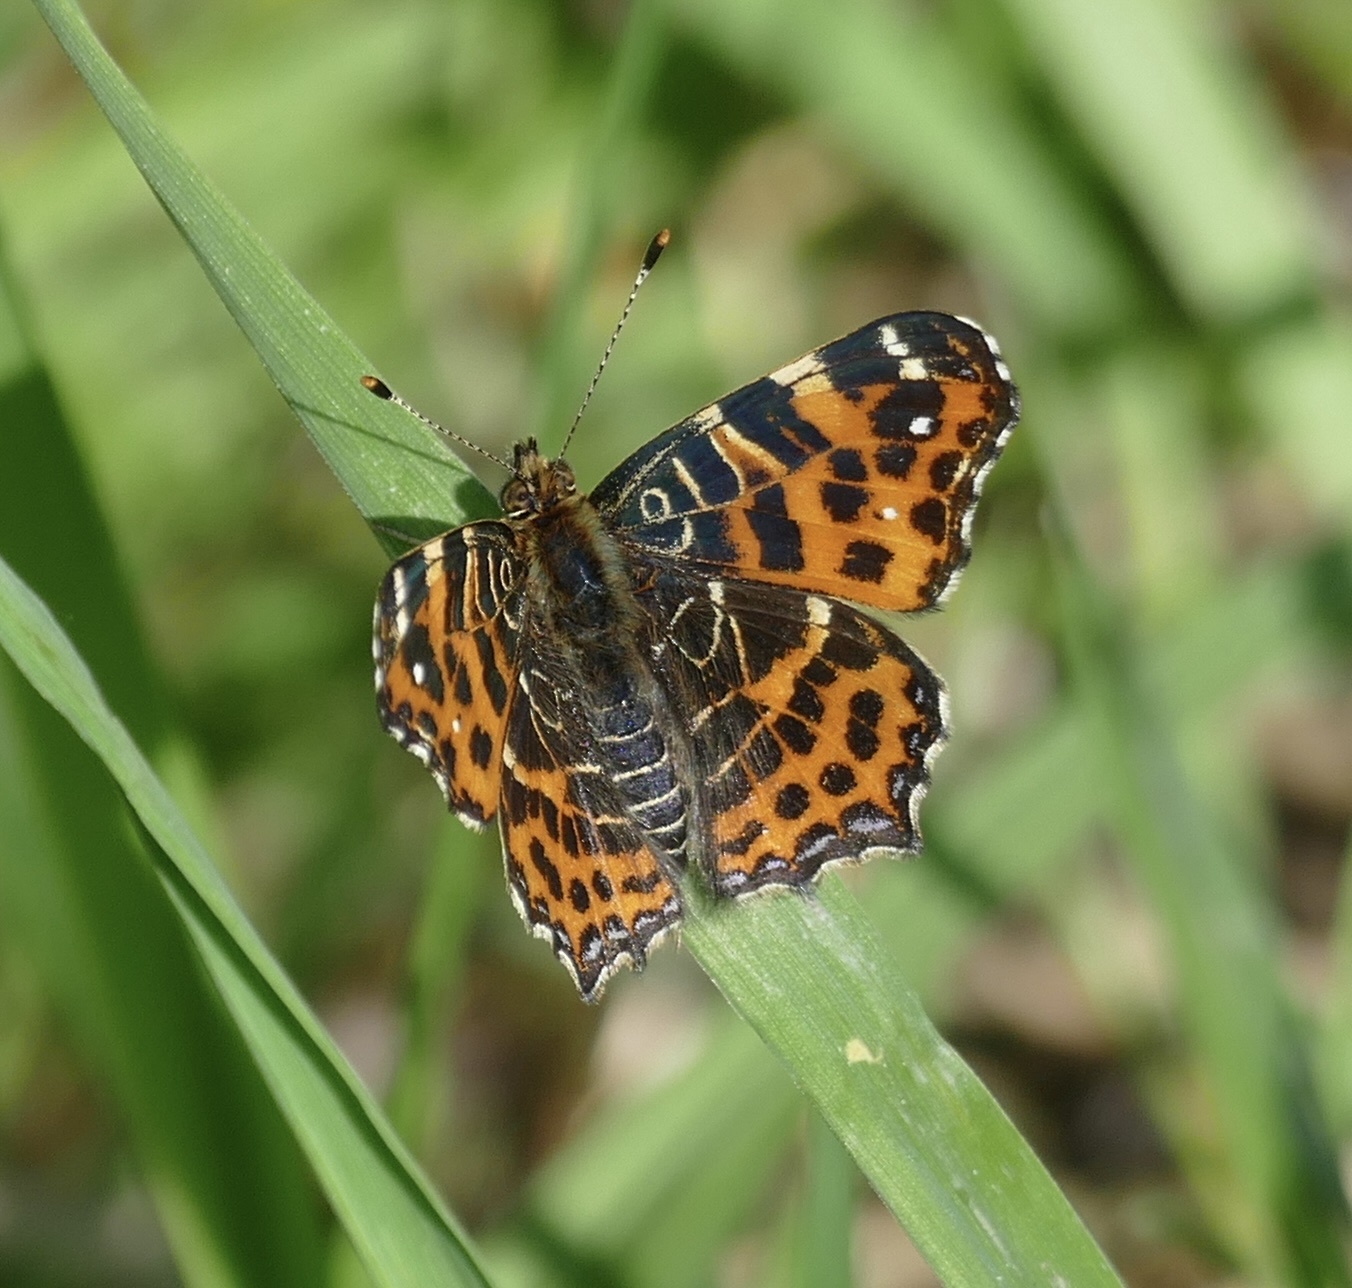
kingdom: Animalia
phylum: Arthropoda
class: Insecta
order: Lepidoptera
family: Nymphalidae
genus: Araschnia
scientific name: Araschnia levana
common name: Map butterfly
